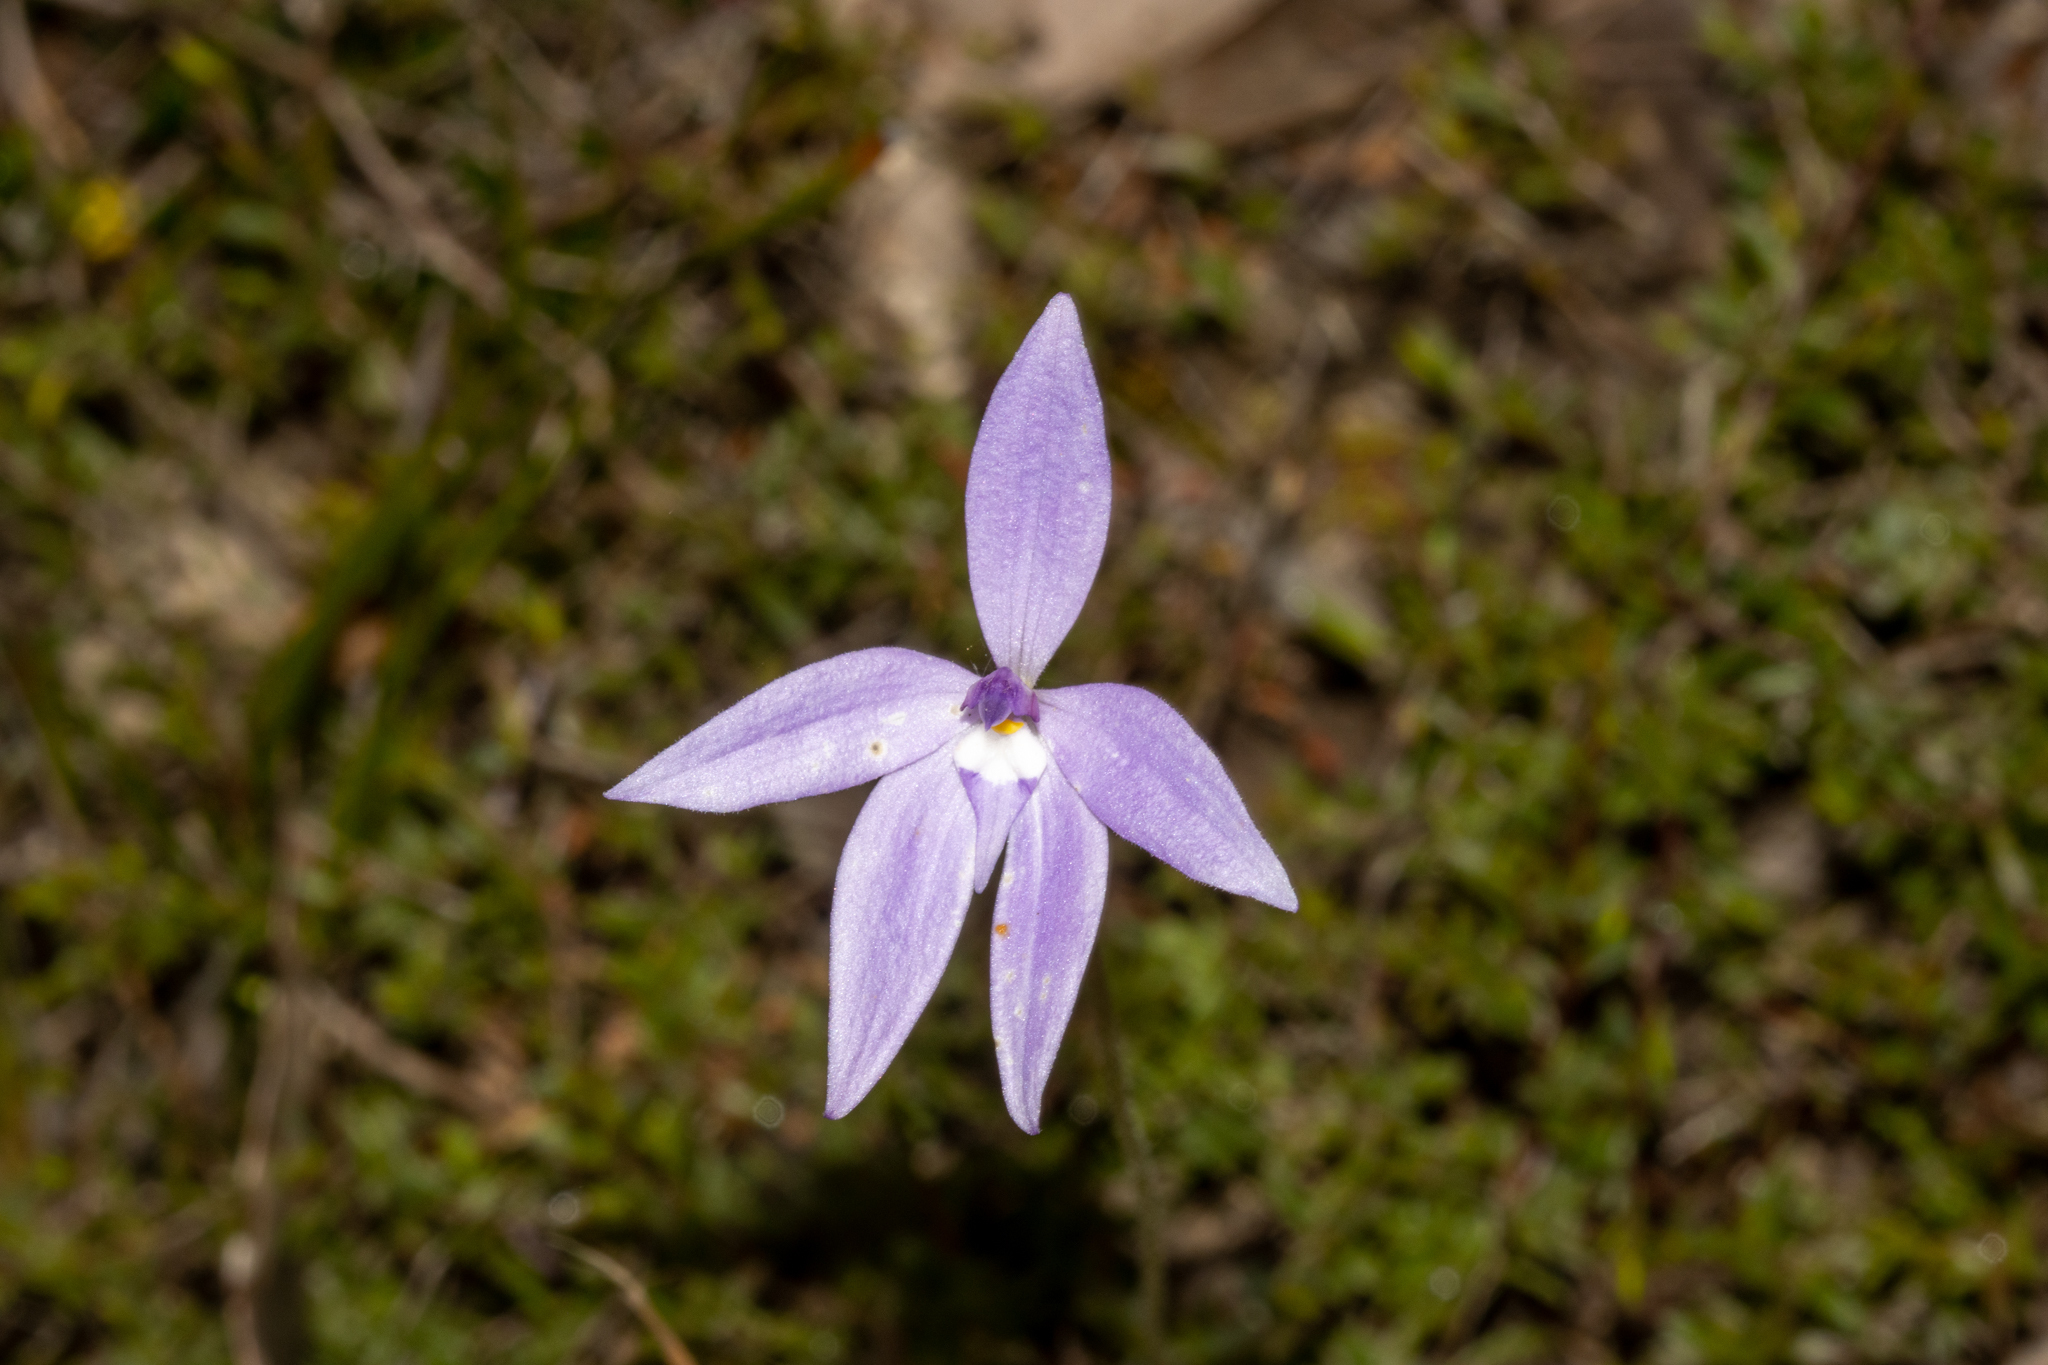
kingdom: Plantae
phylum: Tracheophyta
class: Liliopsida
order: Asparagales
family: Orchidaceae
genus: Caladenia
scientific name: Caladenia major
